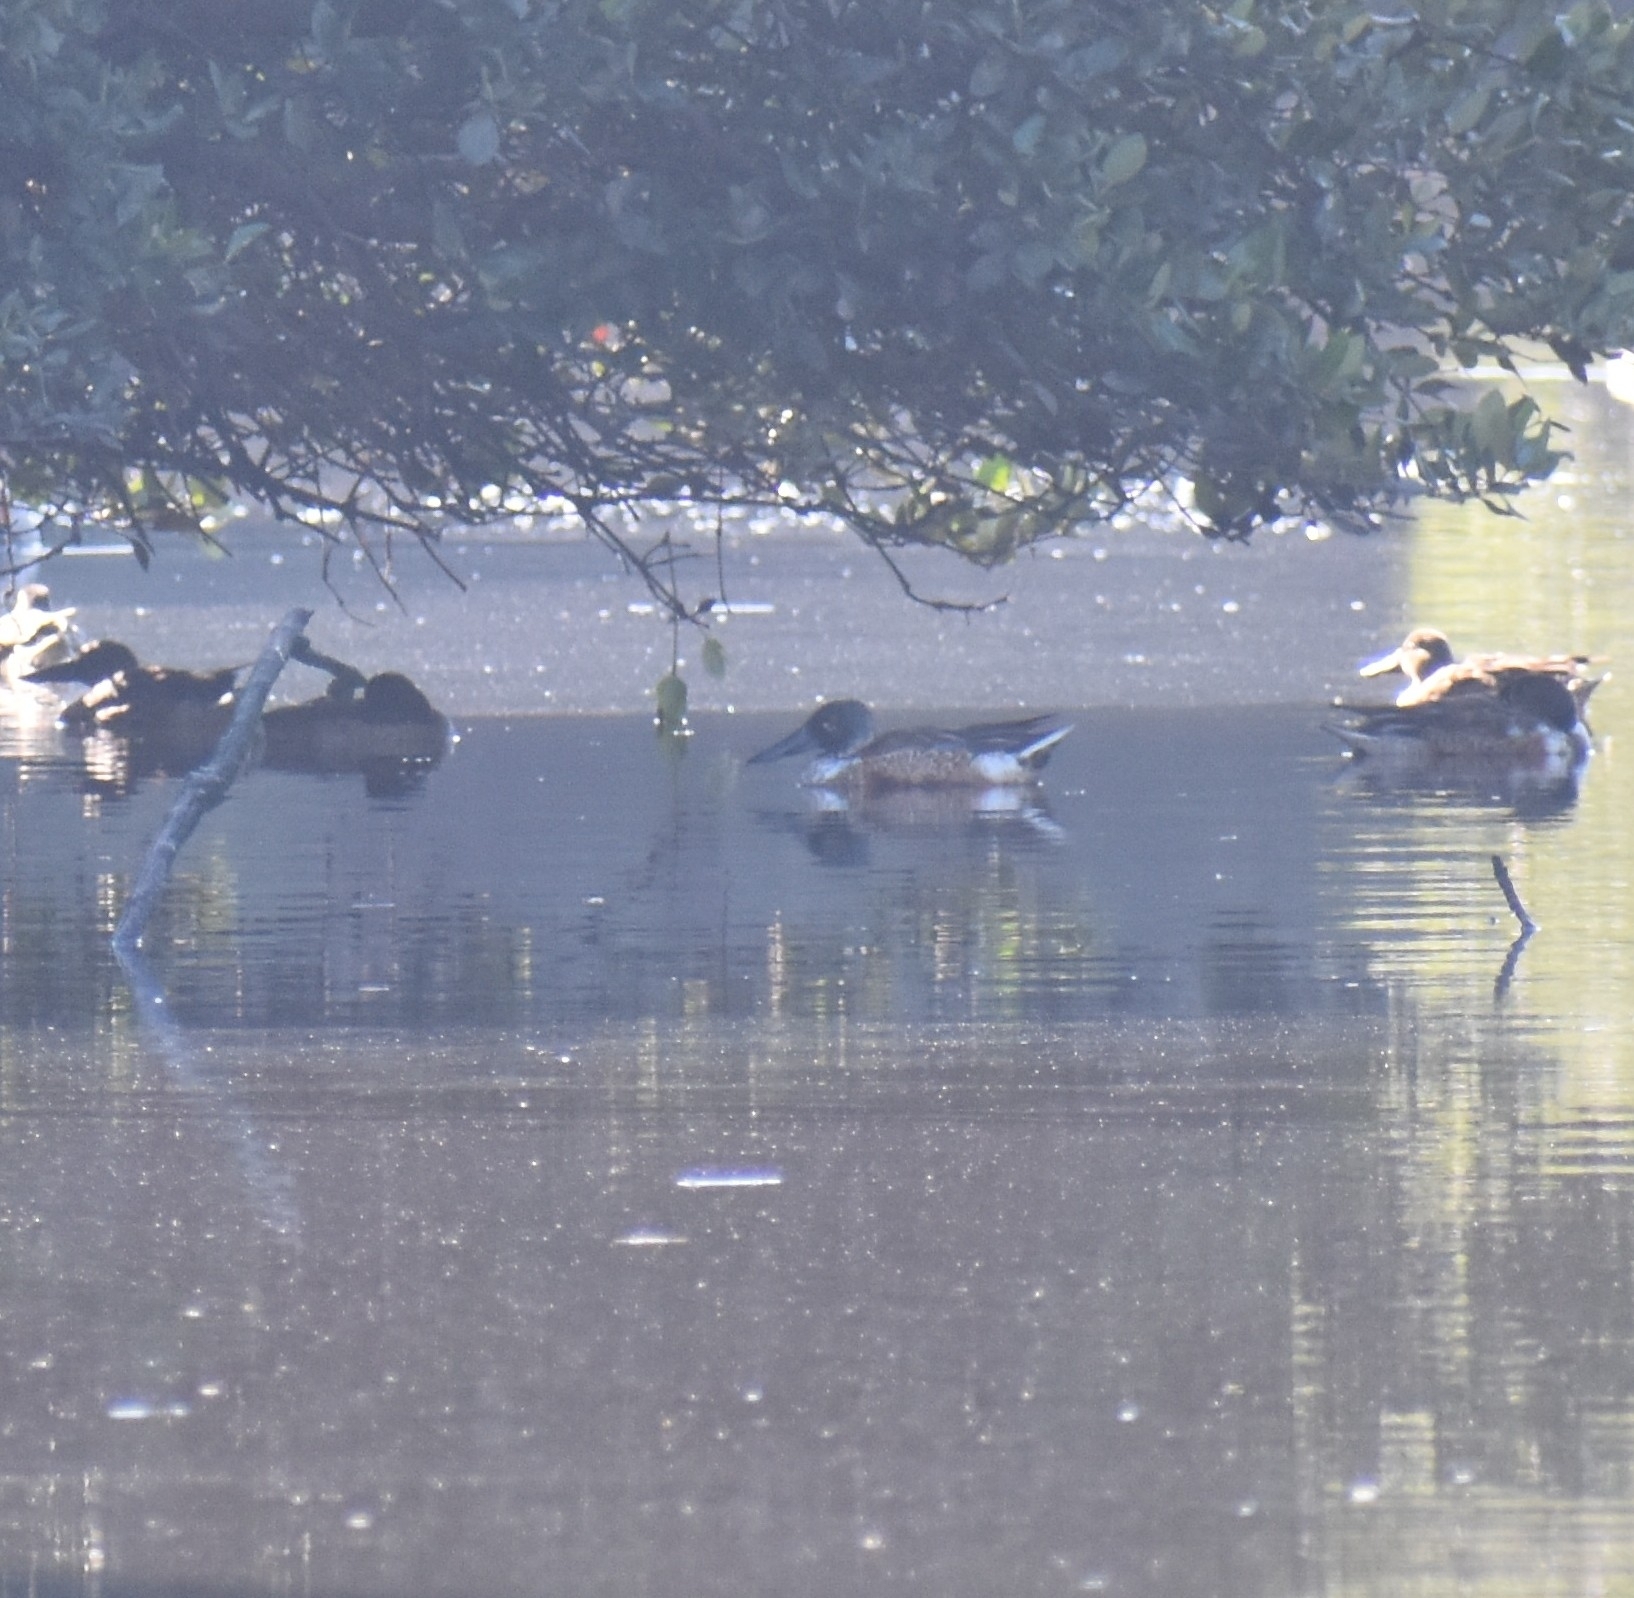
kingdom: Animalia
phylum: Chordata
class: Aves
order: Anseriformes
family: Anatidae
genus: Spatula
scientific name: Spatula clypeata
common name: Northern shoveler
